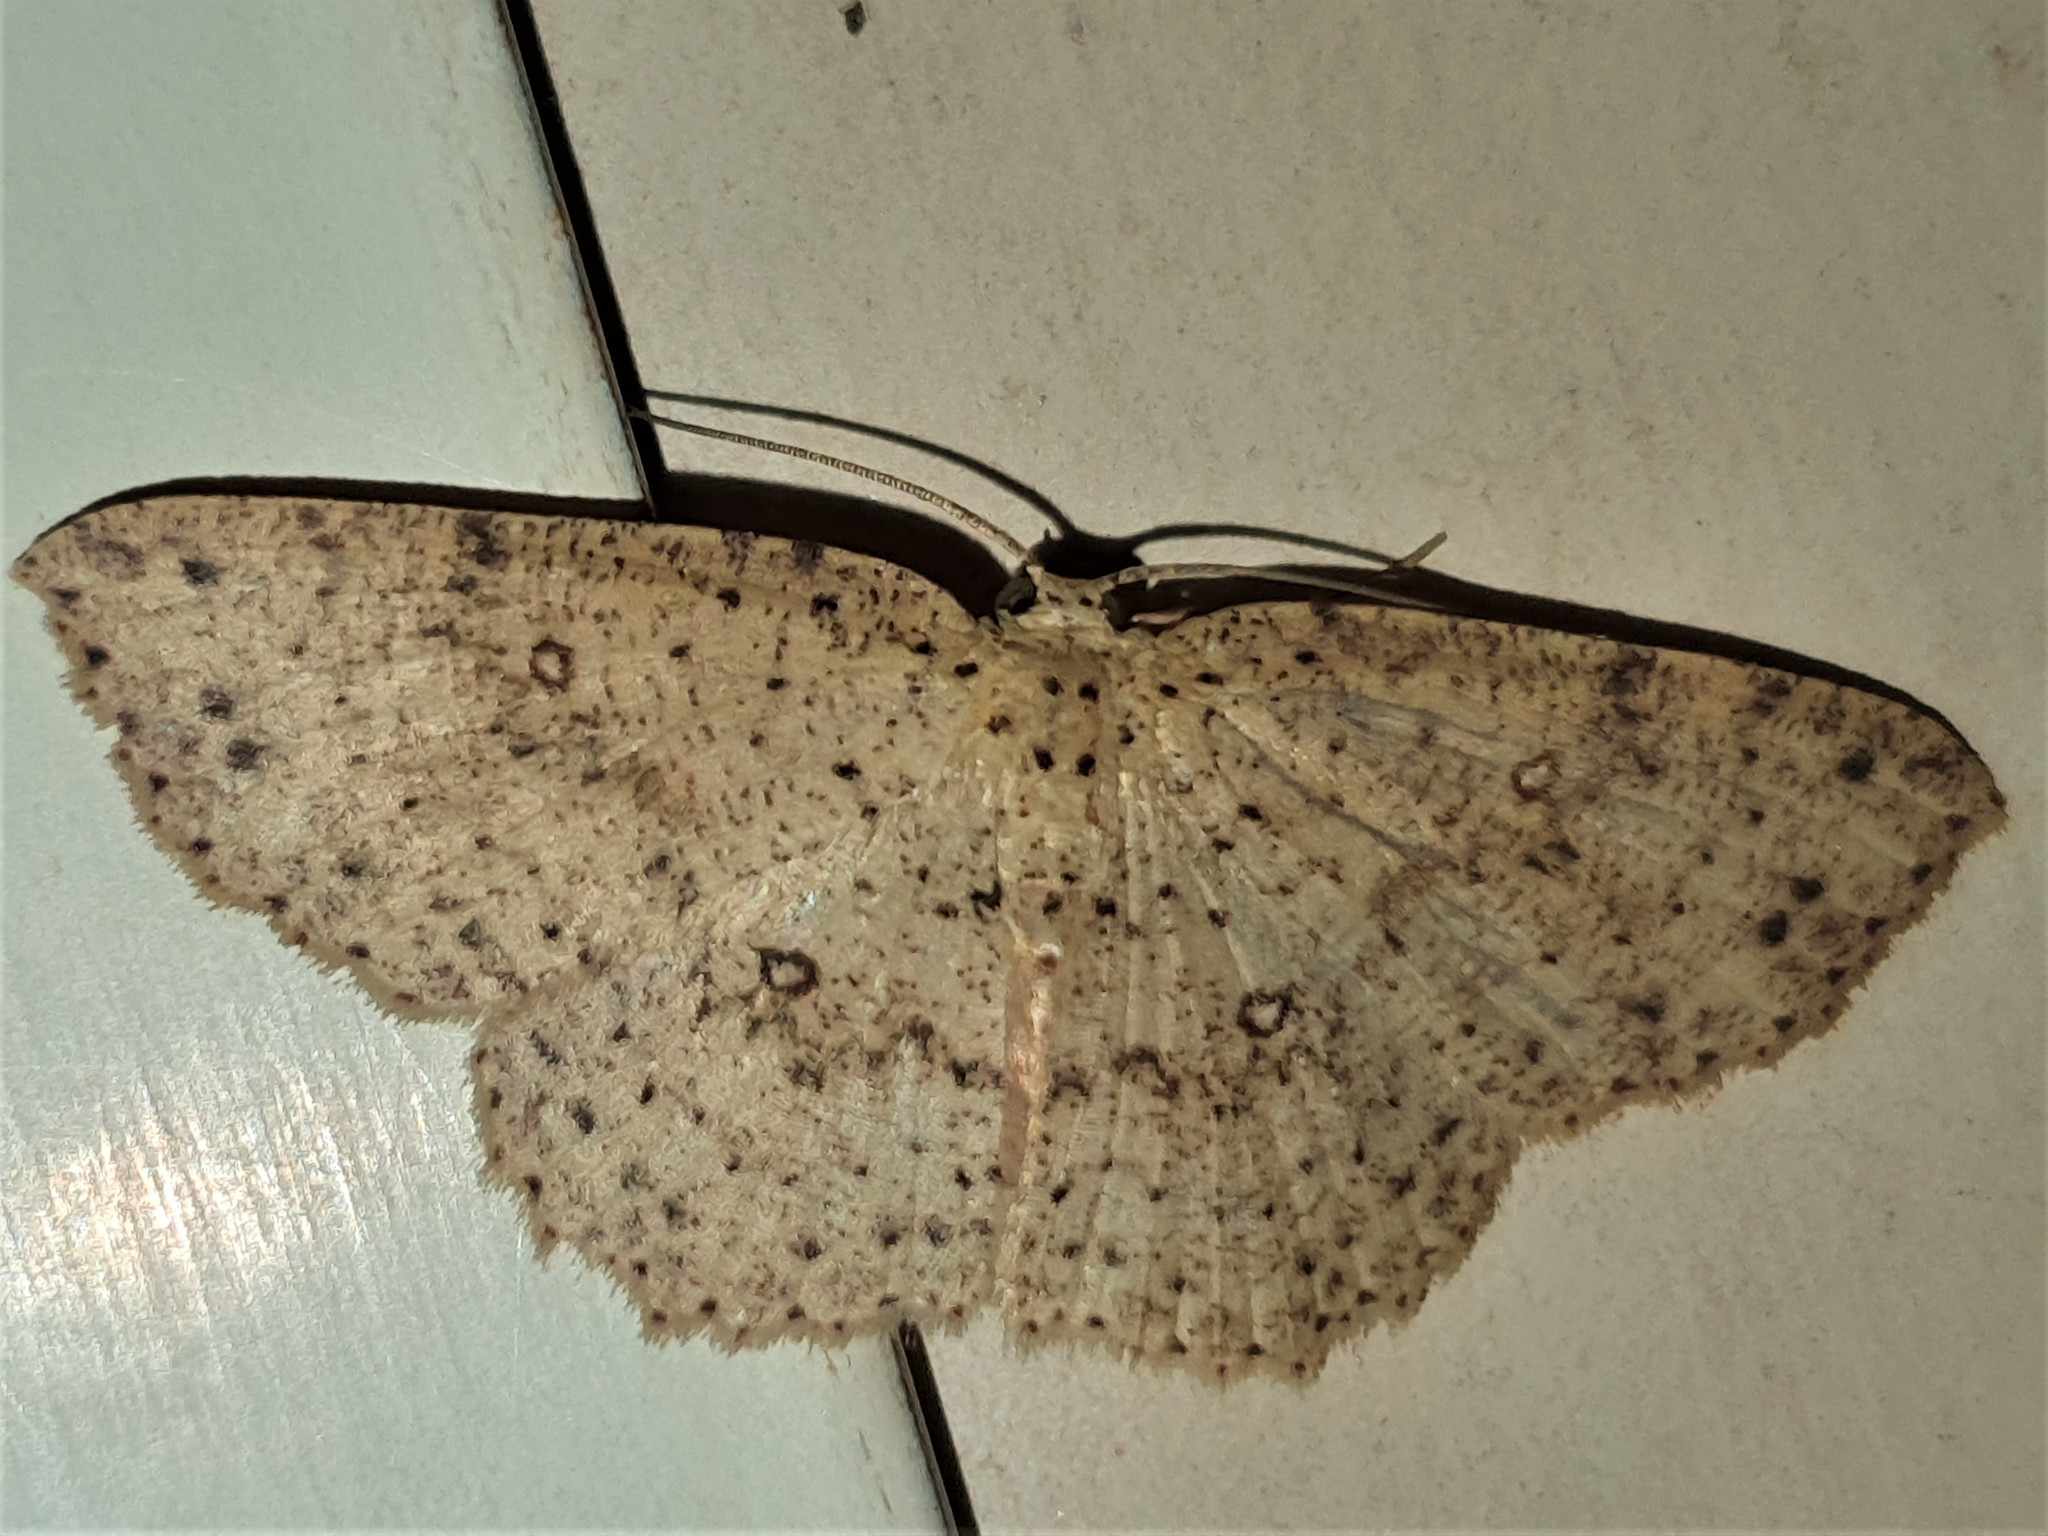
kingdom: Animalia
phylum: Arthropoda
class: Insecta
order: Lepidoptera
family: Geometridae
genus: Cyclophora
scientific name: Cyclophora griseomixta
